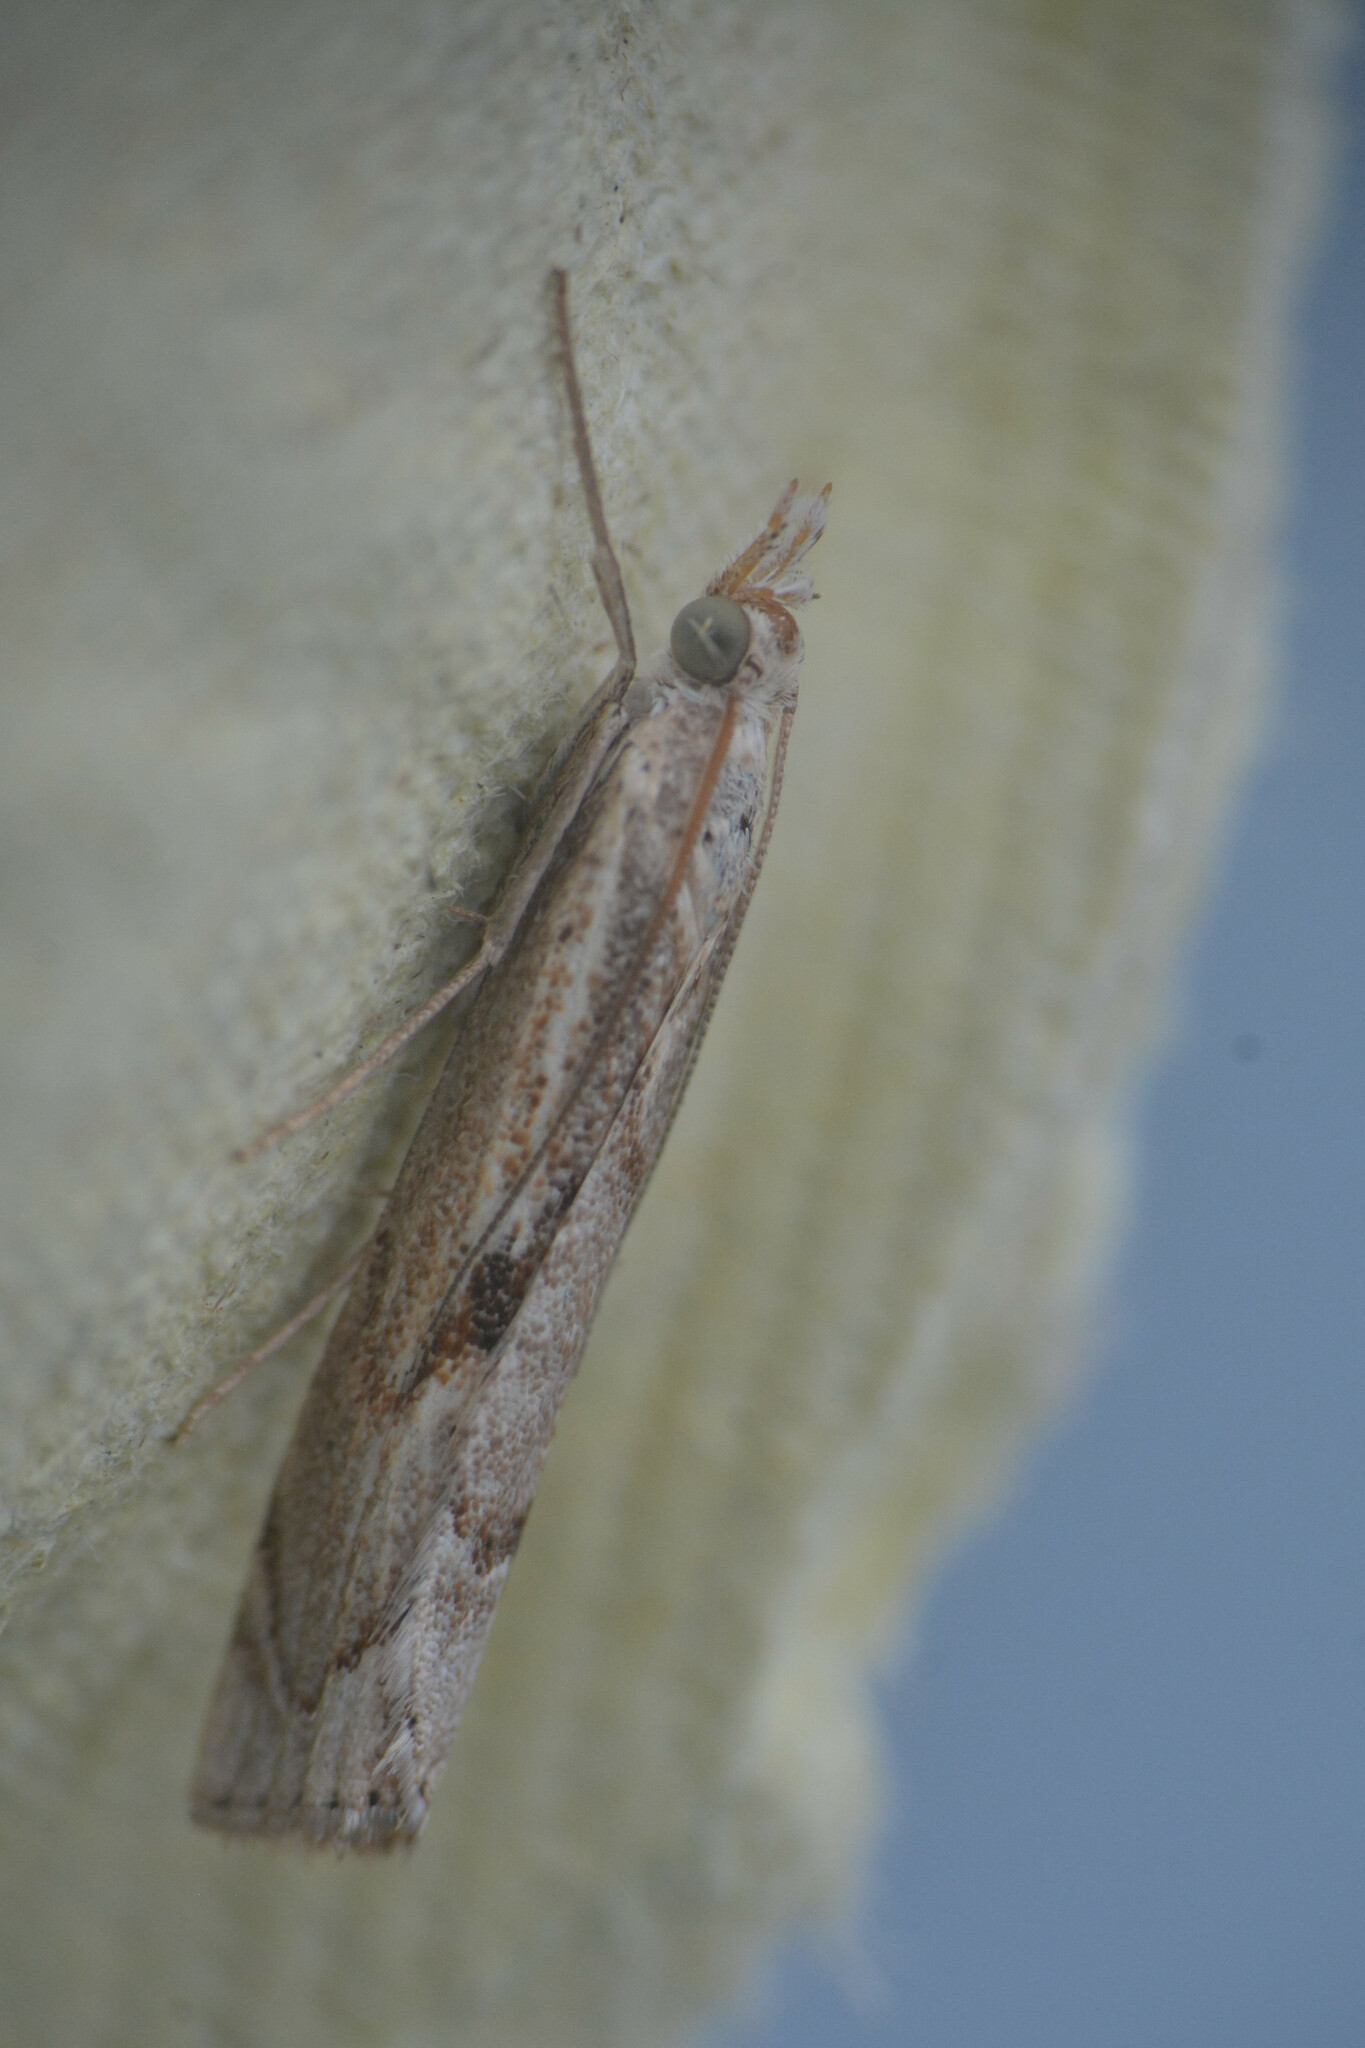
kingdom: Animalia
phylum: Arthropoda
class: Insecta
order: Lepidoptera
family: Crambidae
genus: Agriphila
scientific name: Agriphila geniculea
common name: Elbow-stripe grass-veneer
